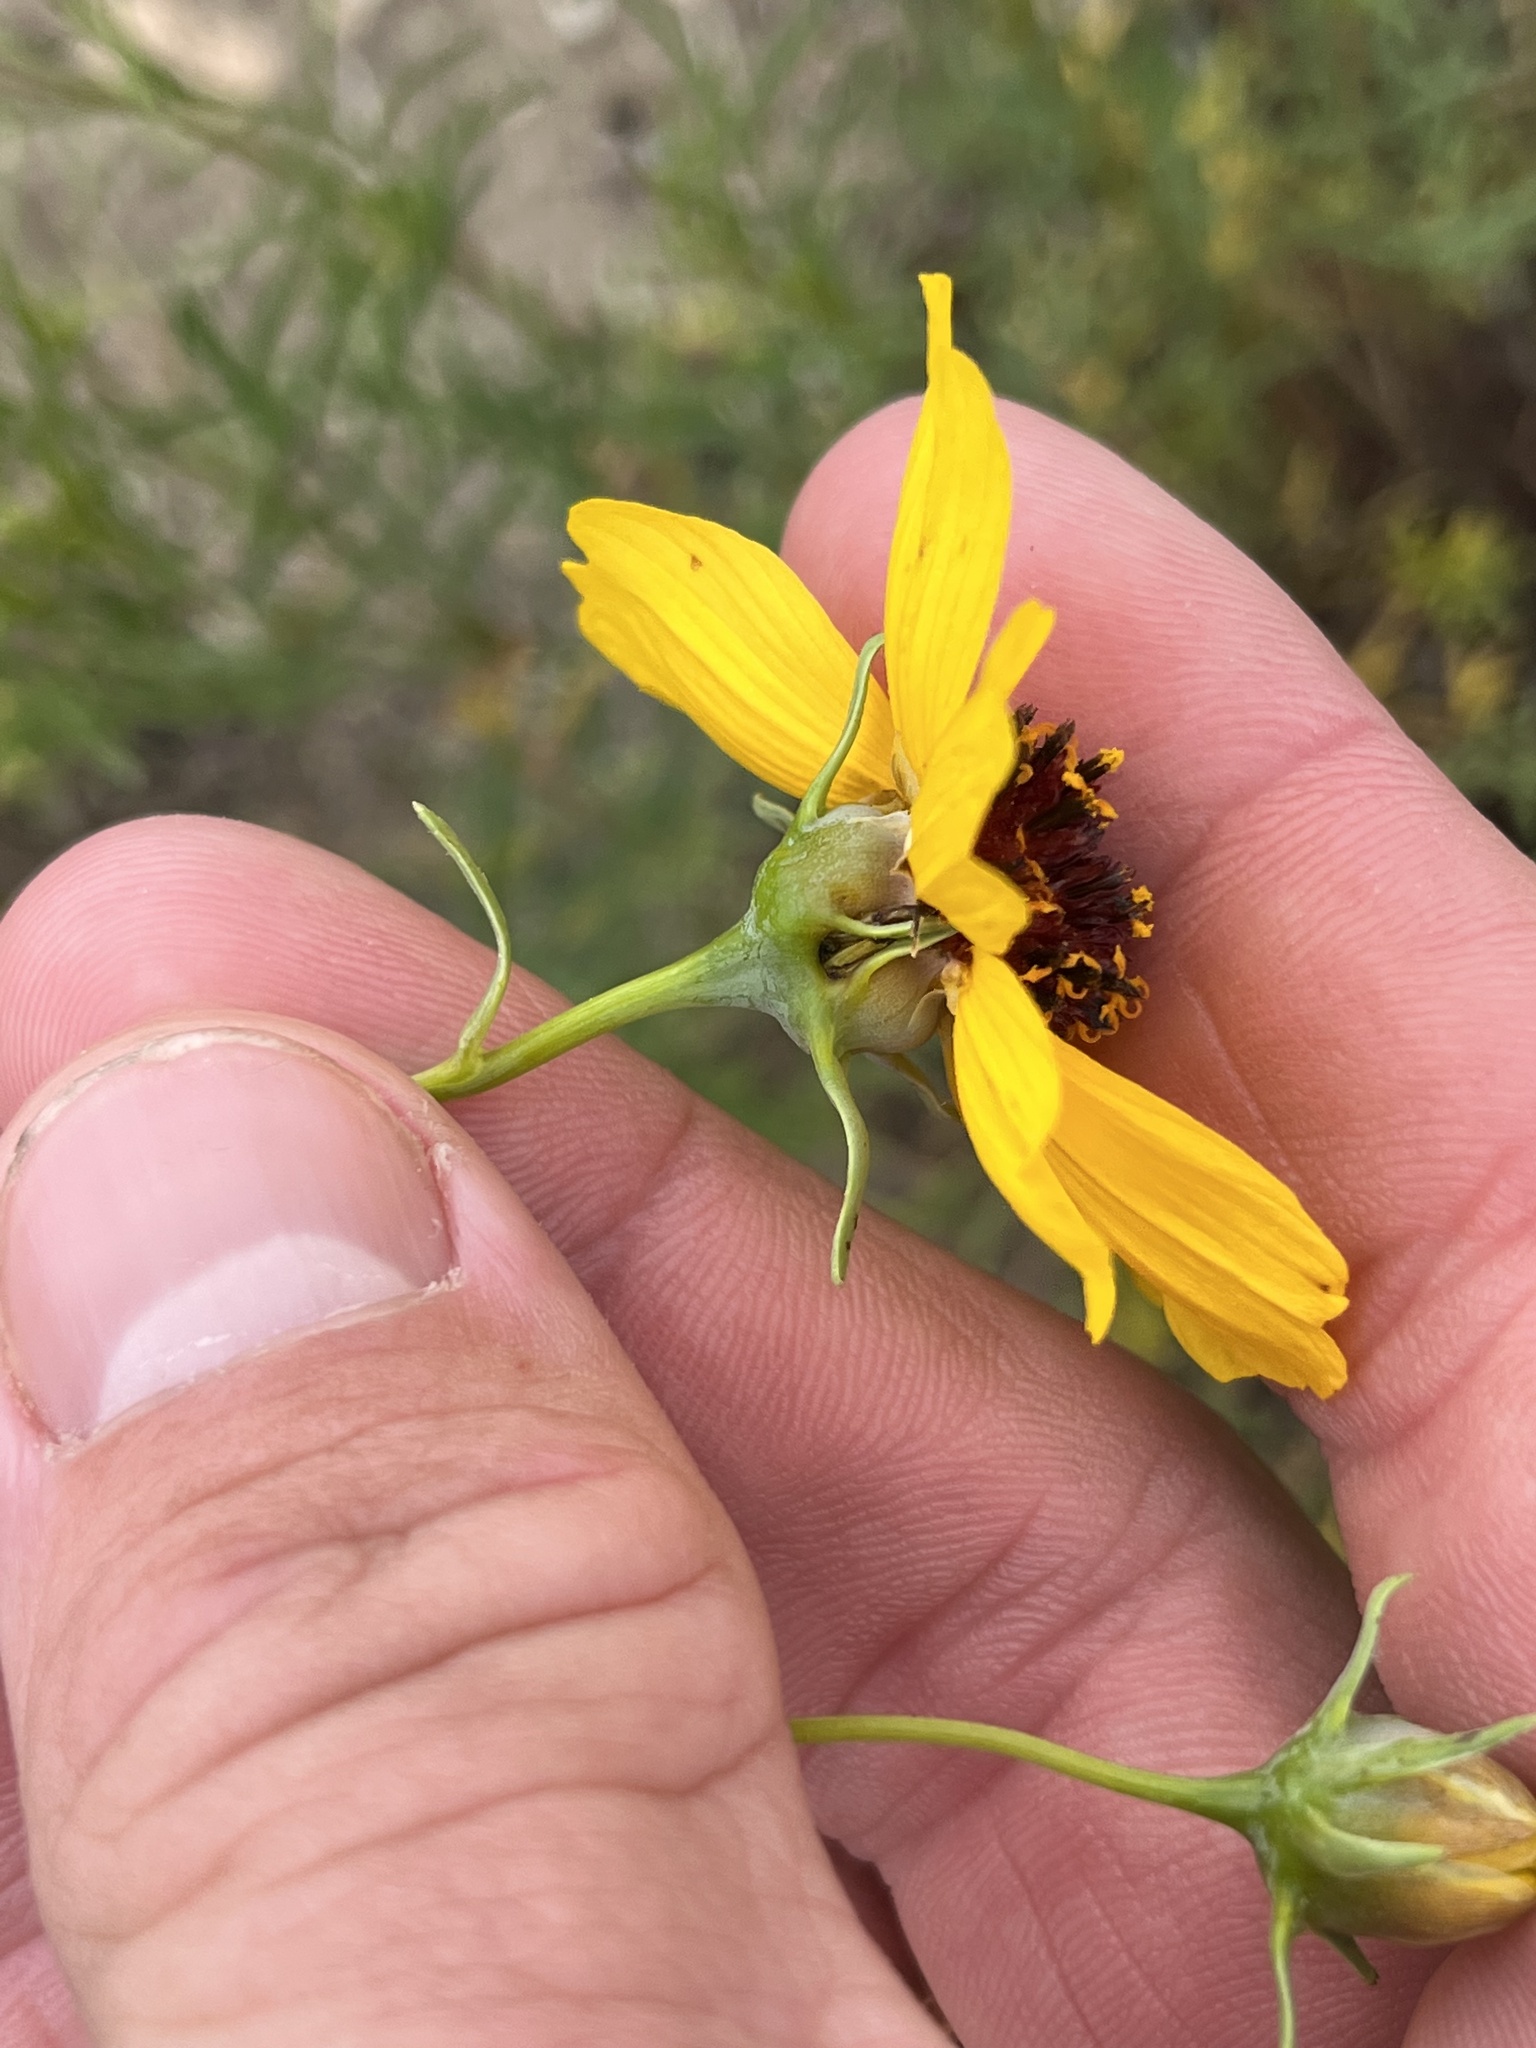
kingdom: Plantae
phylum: Tracheophyta
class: Magnoliopsida
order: Asterales
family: Asteraceae
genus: Thelesperma
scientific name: Thelesperma filifolium
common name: Stiff greenthread
